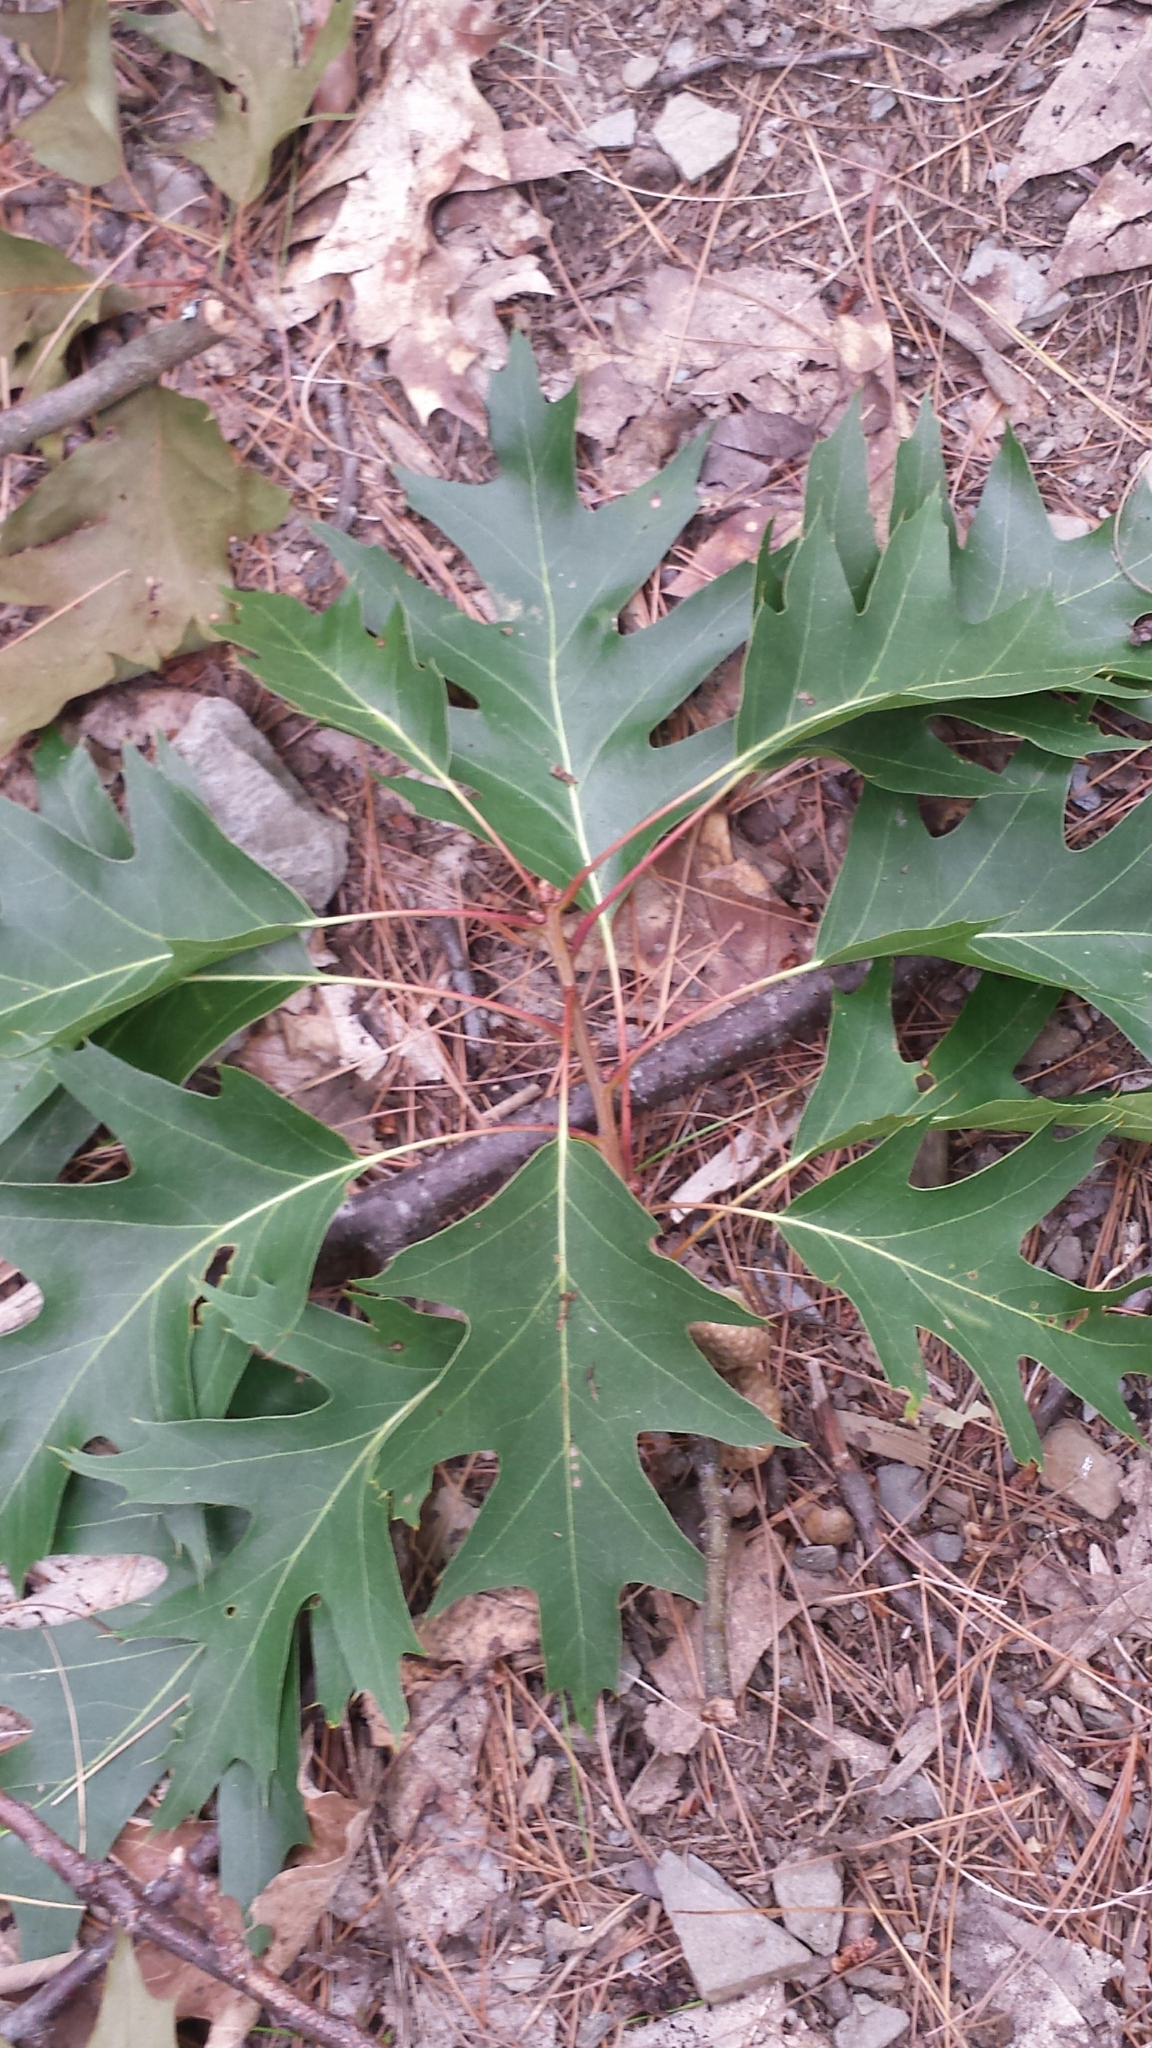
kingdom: Plantae
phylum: Tracheophyta
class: Magnoliopsida
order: Fagales
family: Fagaceae
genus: Quercus
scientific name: Quercus rubra
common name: Red oak
